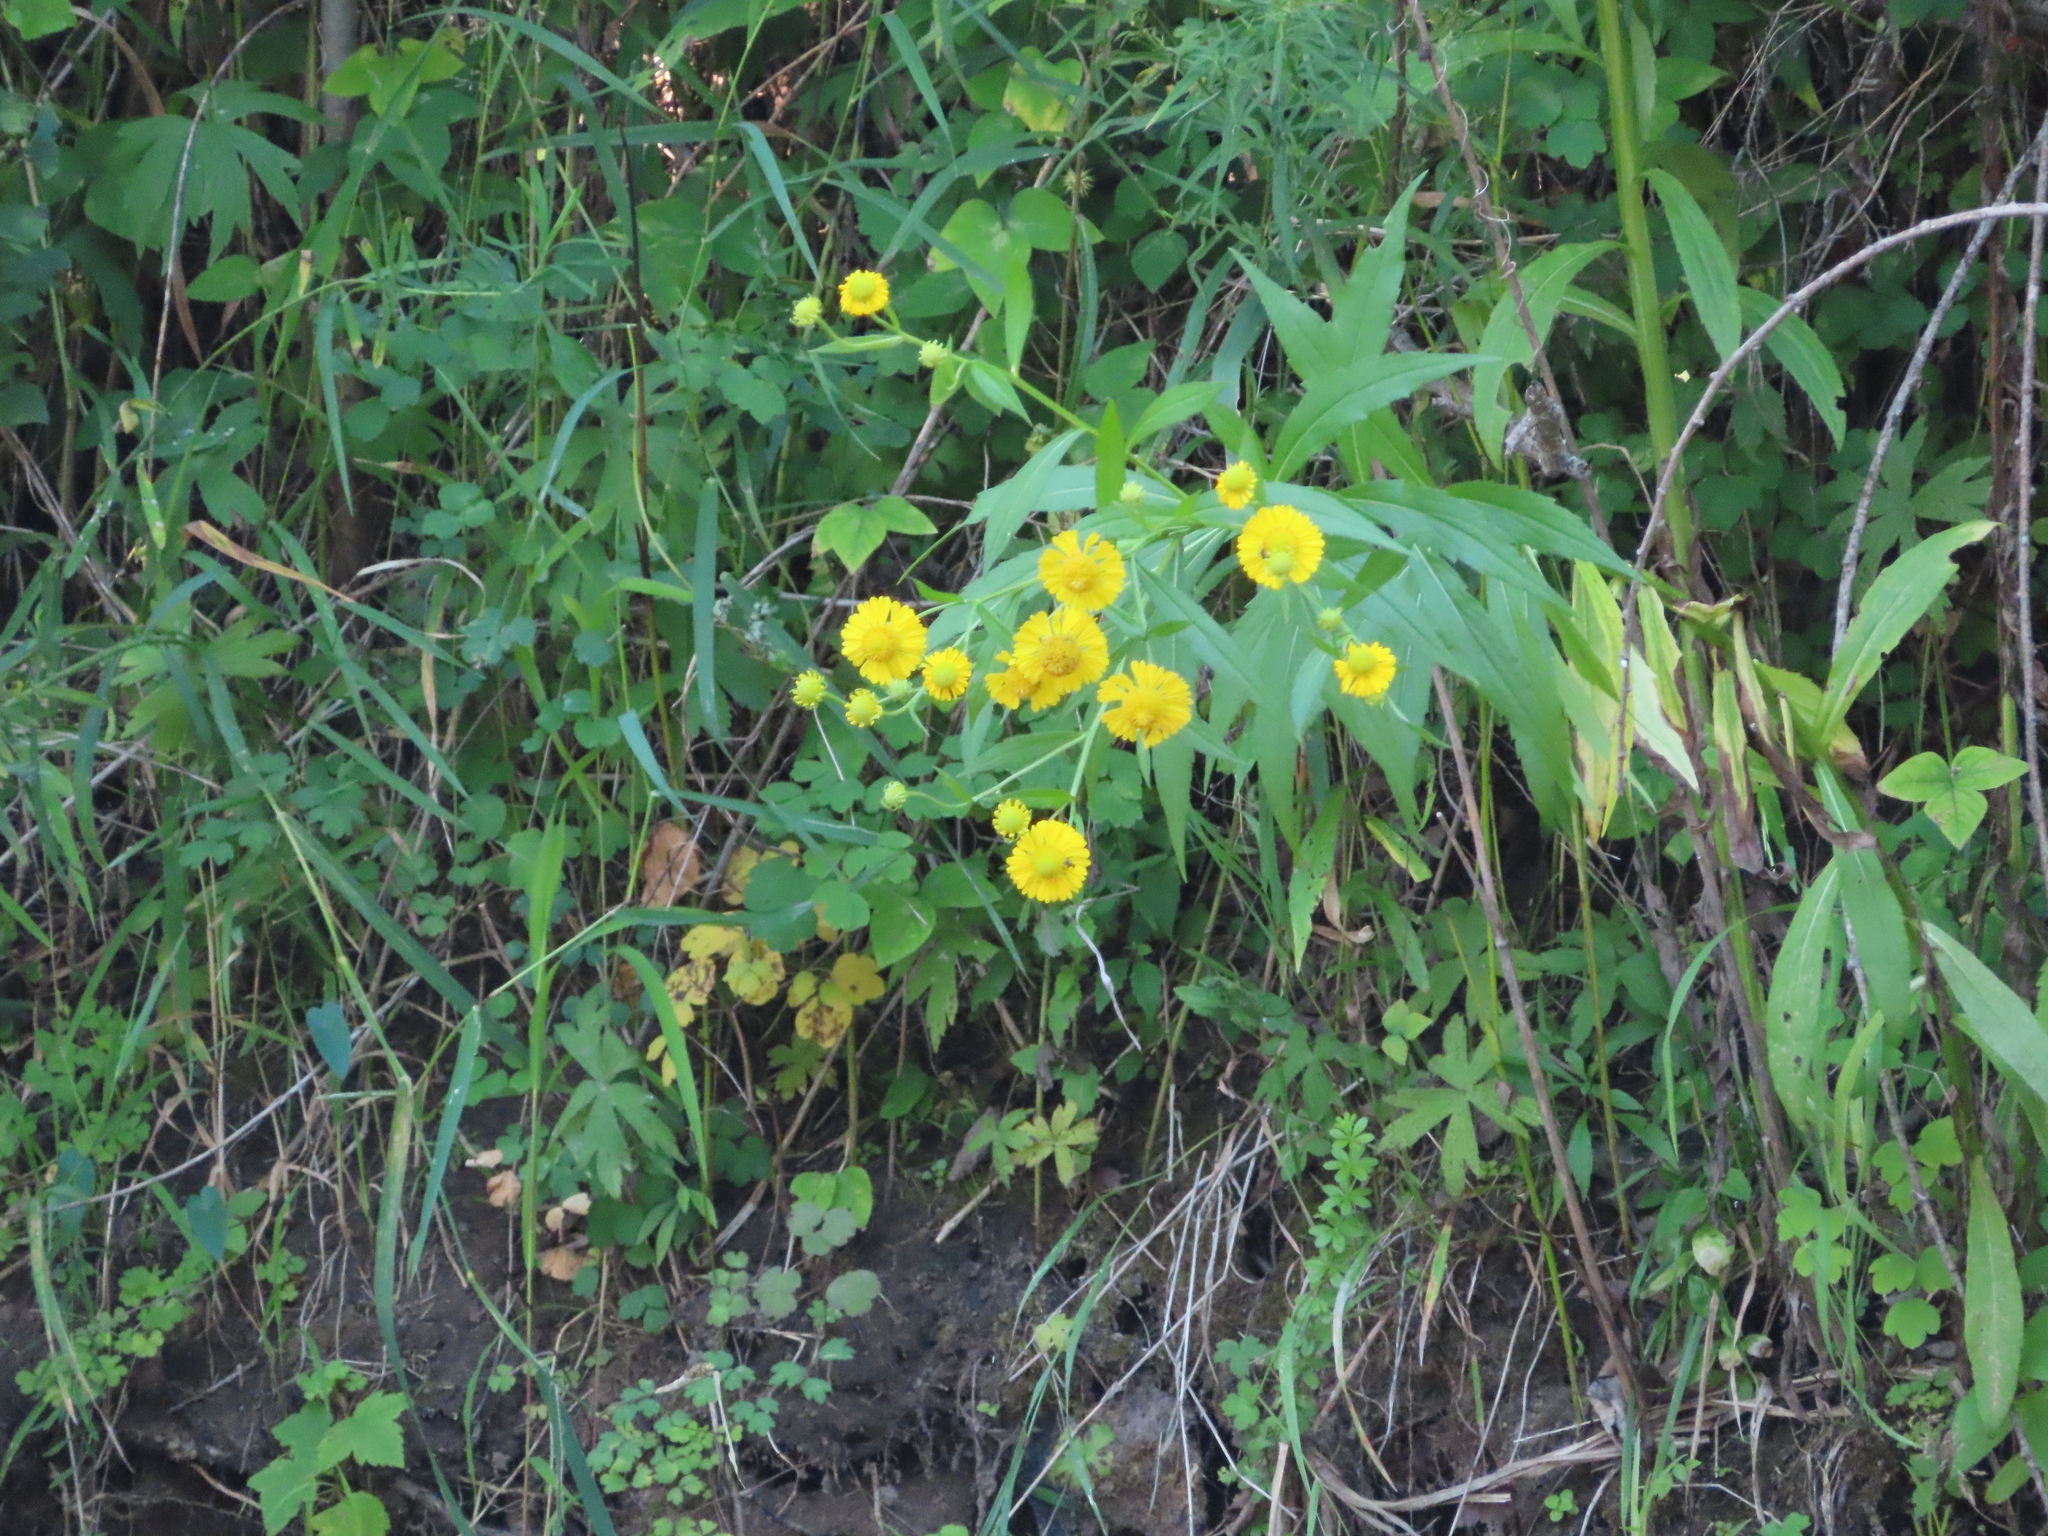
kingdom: Plantae
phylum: Tracheophyta
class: Magnoliopsida
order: Asterales
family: Asteraceae
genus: Helenium
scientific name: Helenium autumnale
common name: Sneezeweed
